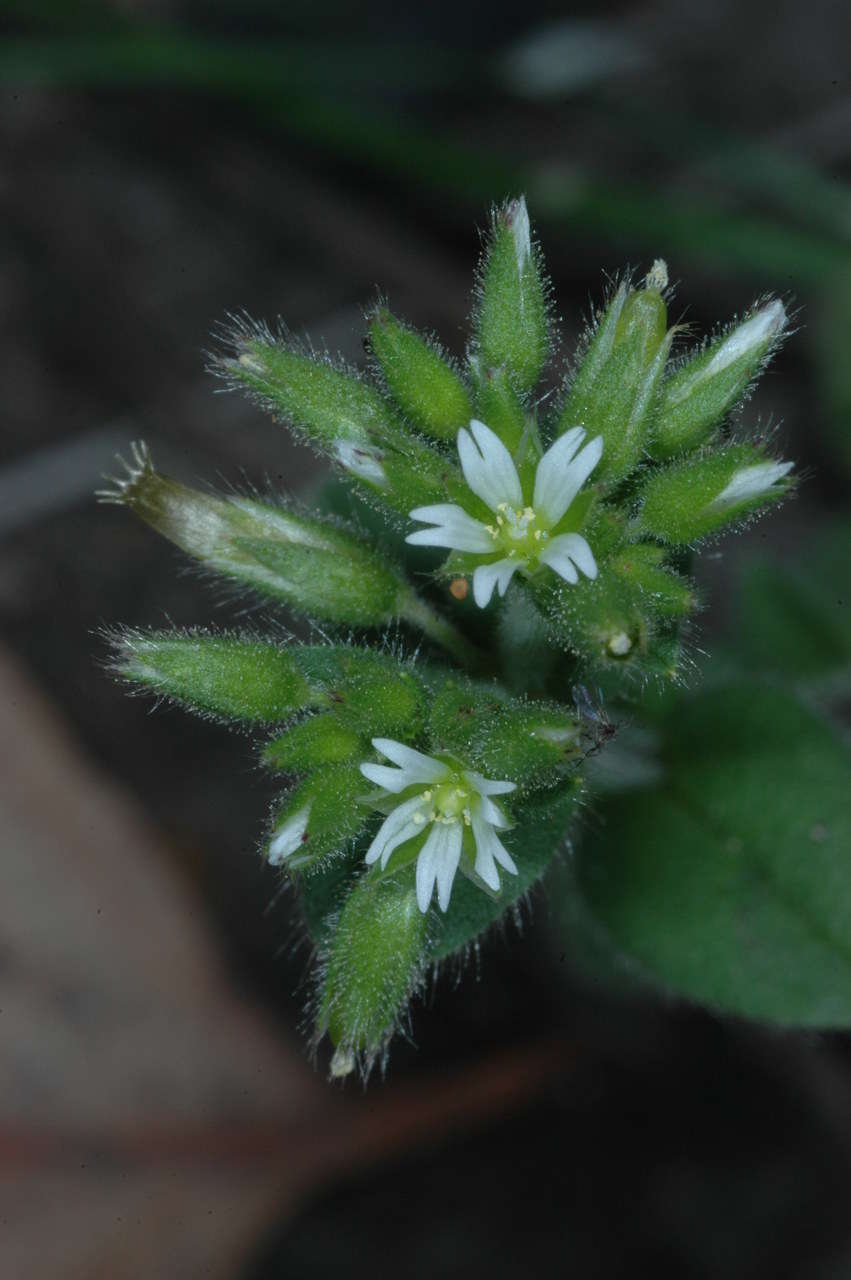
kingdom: Plantae
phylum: Tracheophyta
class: Magnoliopsida
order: Caryophyllales
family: Caryophyllaceae
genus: Cerastium
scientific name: Cerastium glomeratum
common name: Sticky chickweed
